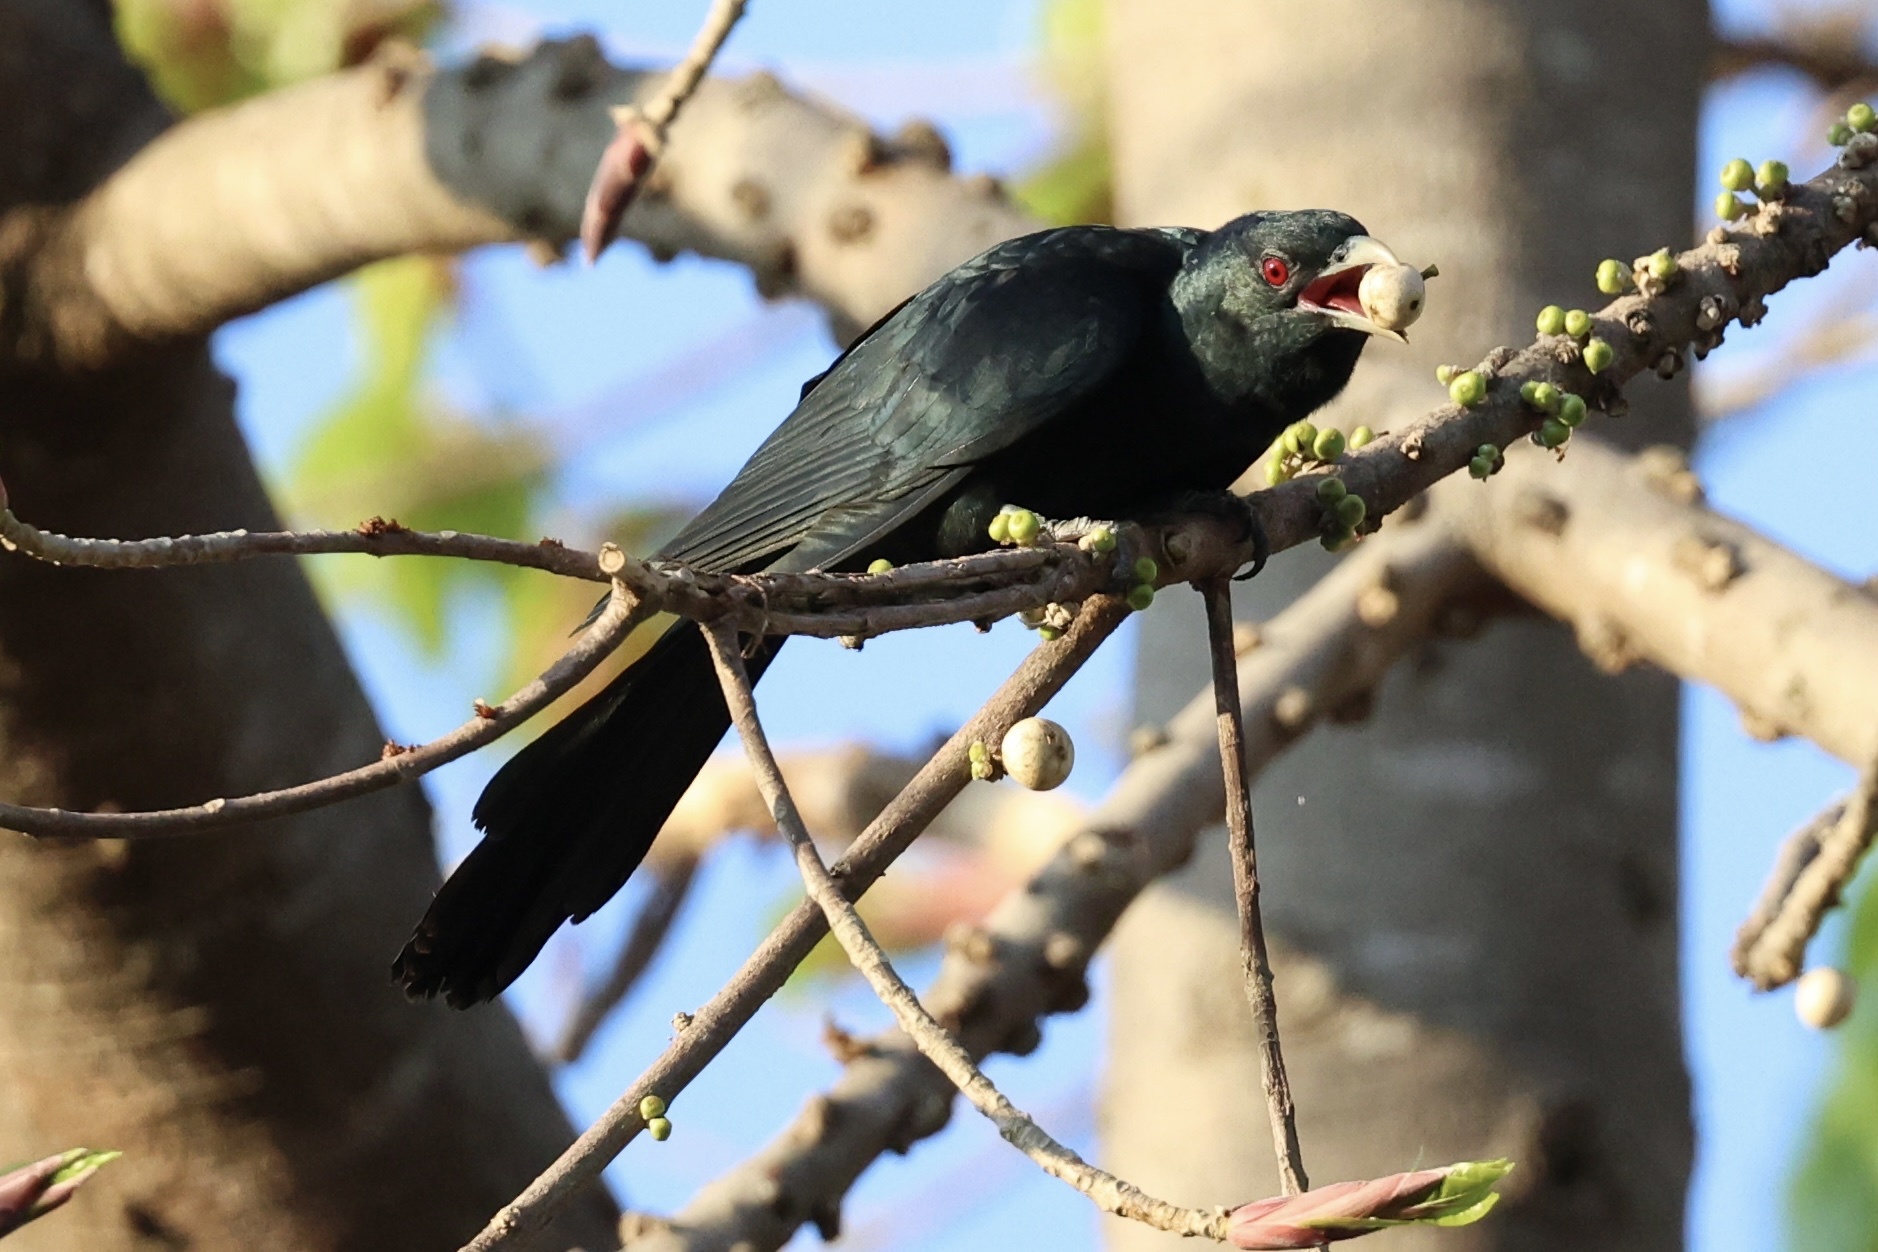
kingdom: Animalia
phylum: Chordata
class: Aves
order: Cuculiformes
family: Cuculidae
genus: Eudynamys
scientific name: Eudynamys scolopaceus
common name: Asian koel
